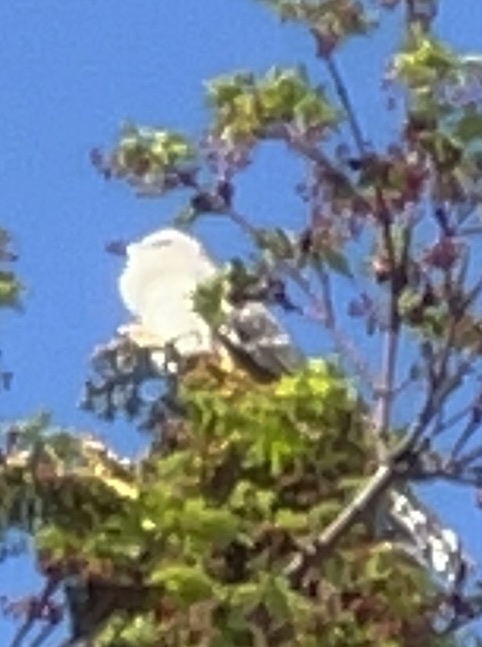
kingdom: Animalia
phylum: Chordata
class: Aves
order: Passeriformes
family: Mimidae
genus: Mimus
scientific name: Mimus polyglottos
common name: Northern mockingbird
